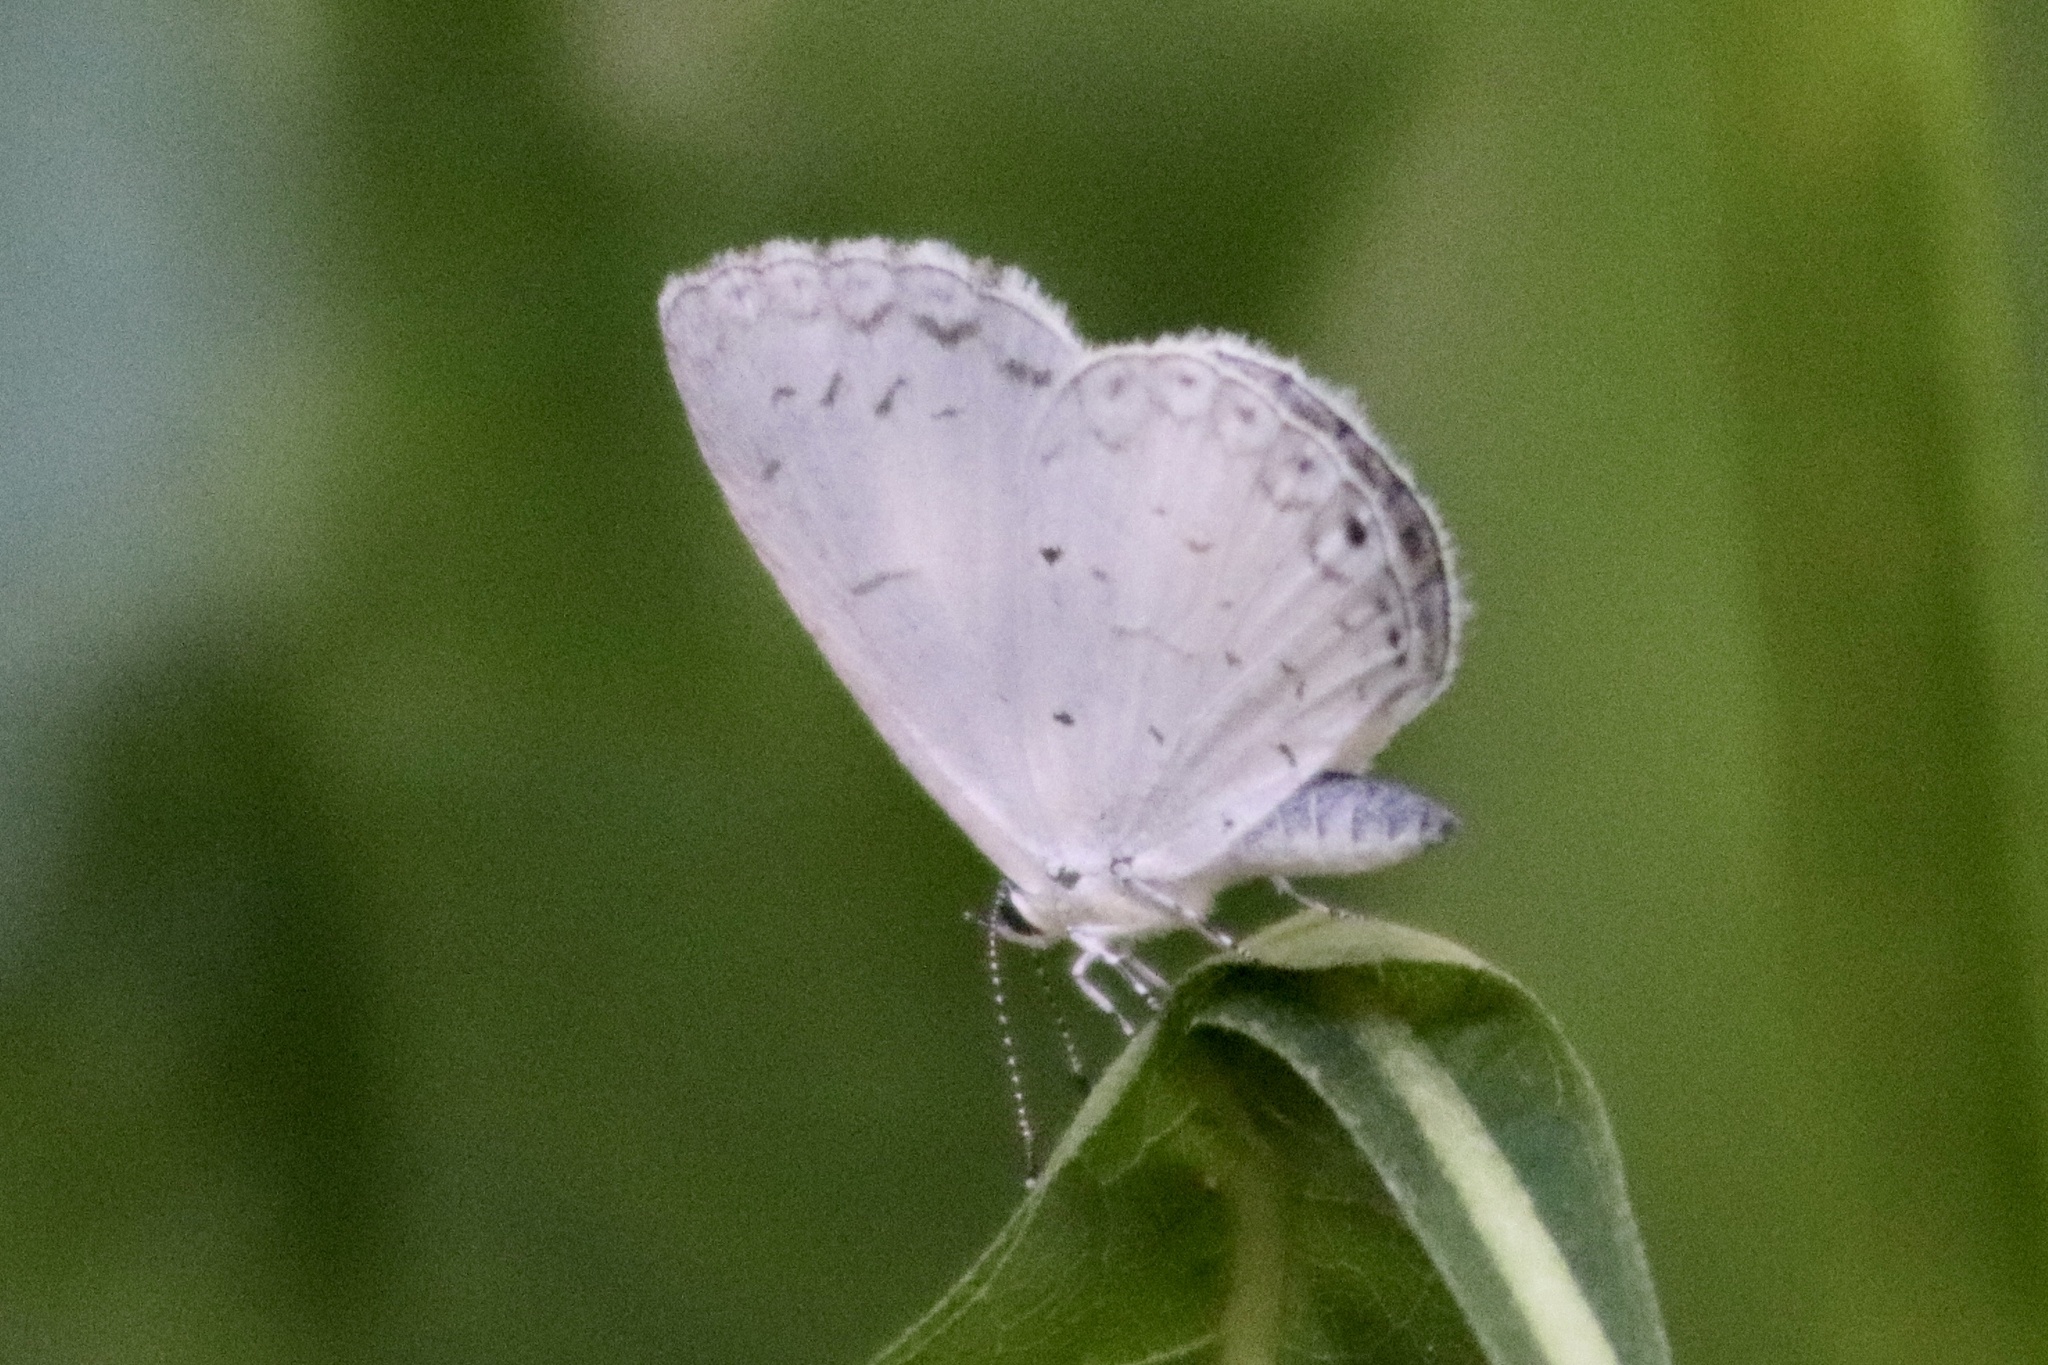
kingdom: Animalia
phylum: Arthropoda
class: Insecta
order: Lepidoptera
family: Lycaenidae
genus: Cyaniris
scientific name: Cyaniris neglecta
